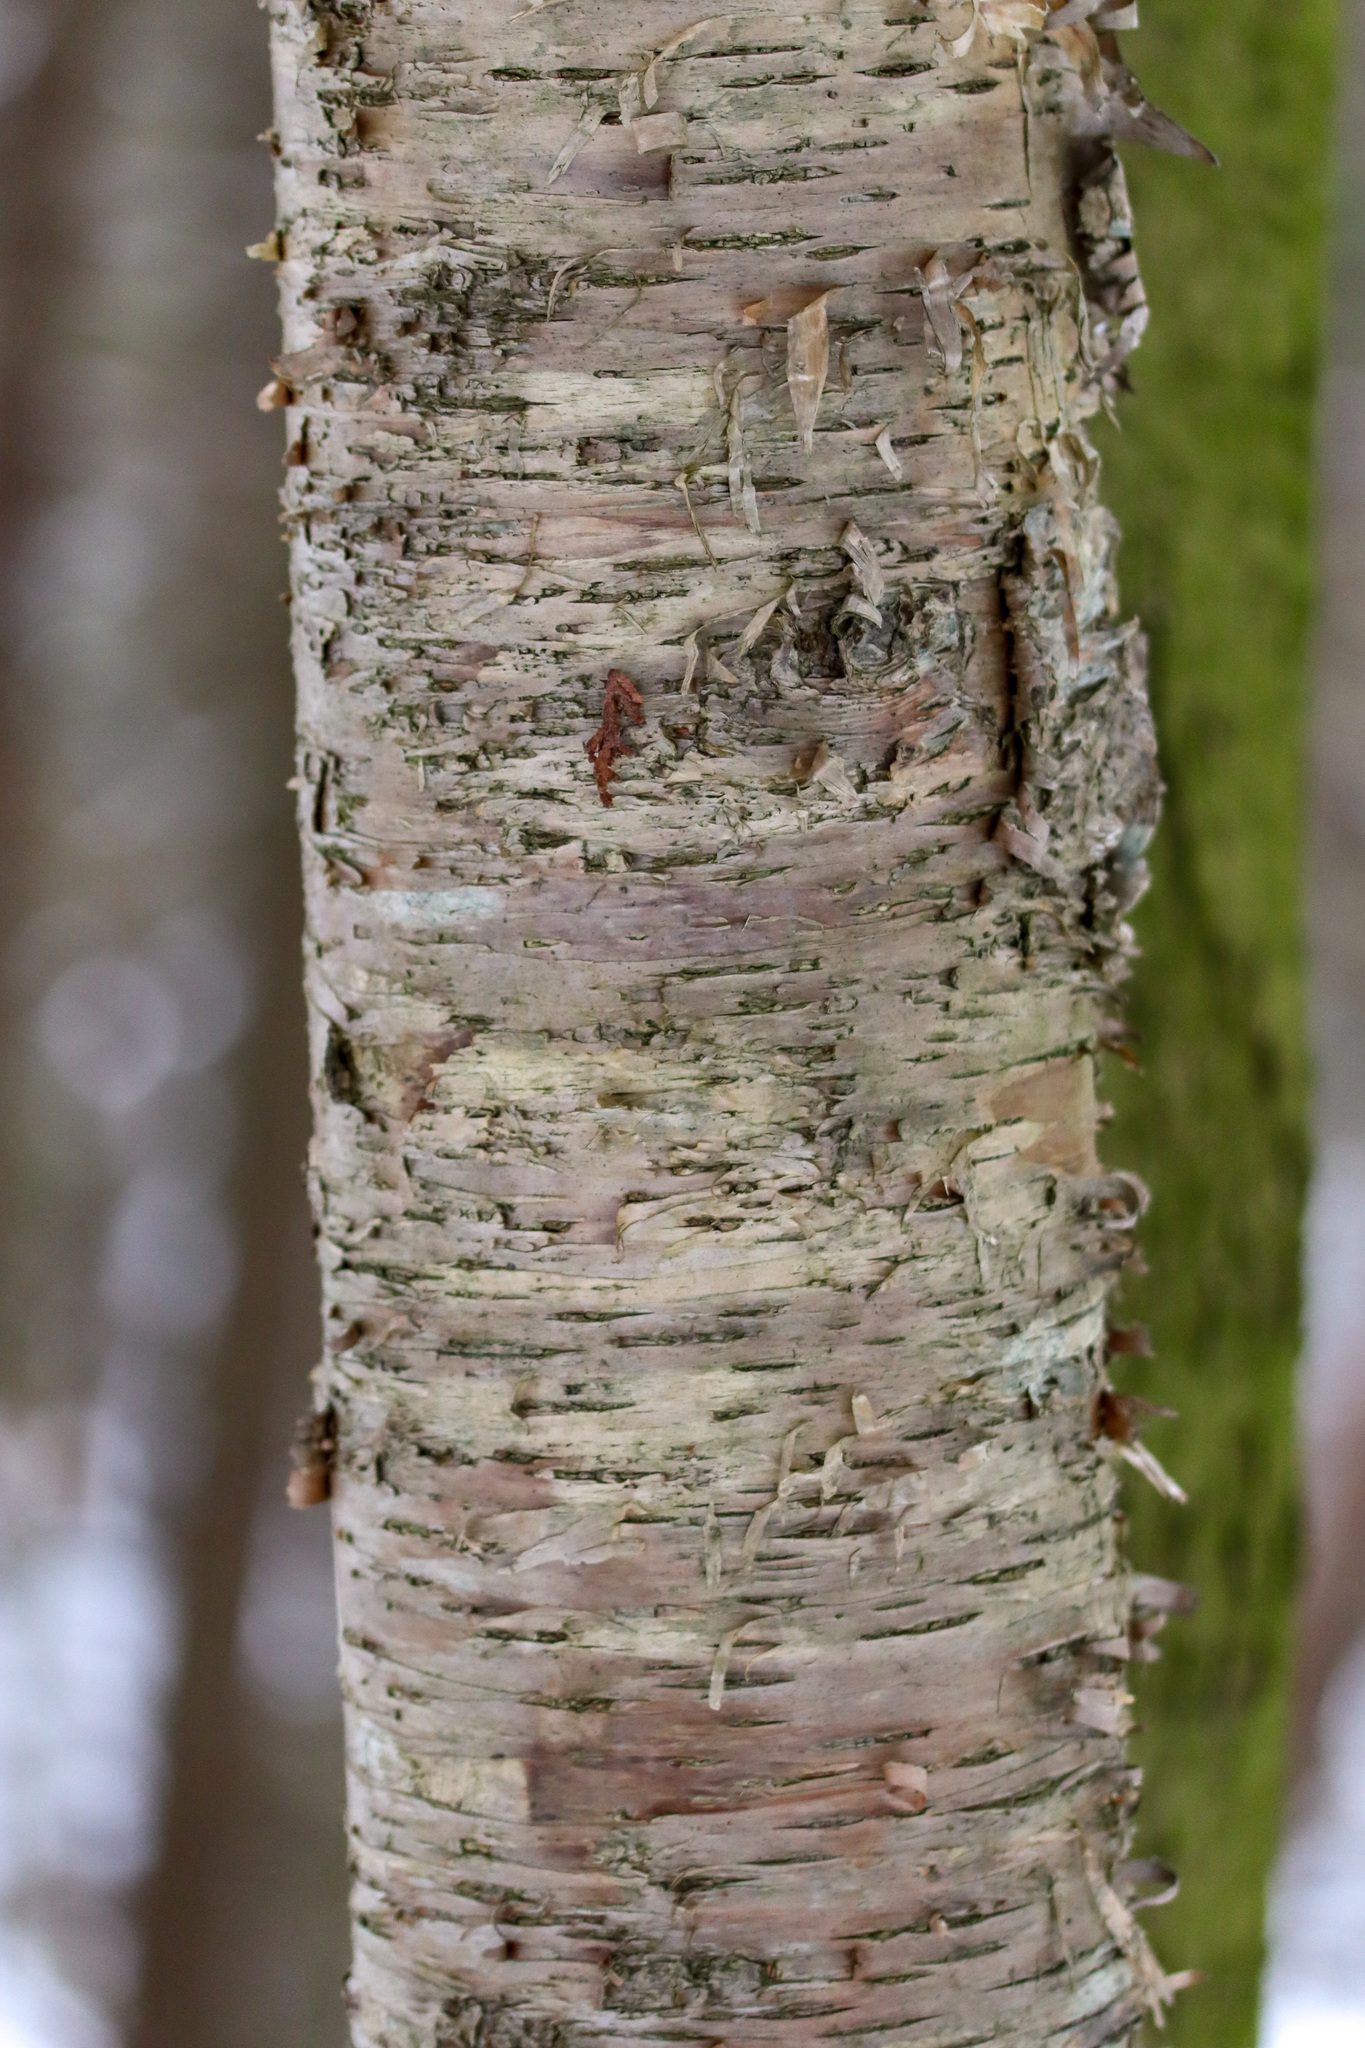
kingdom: Plantae
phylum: Tracheophyta
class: Magnoliopsida
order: Fagales
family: Betulaceae
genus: Betula
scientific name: Betula papyrifera
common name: Paper birch
